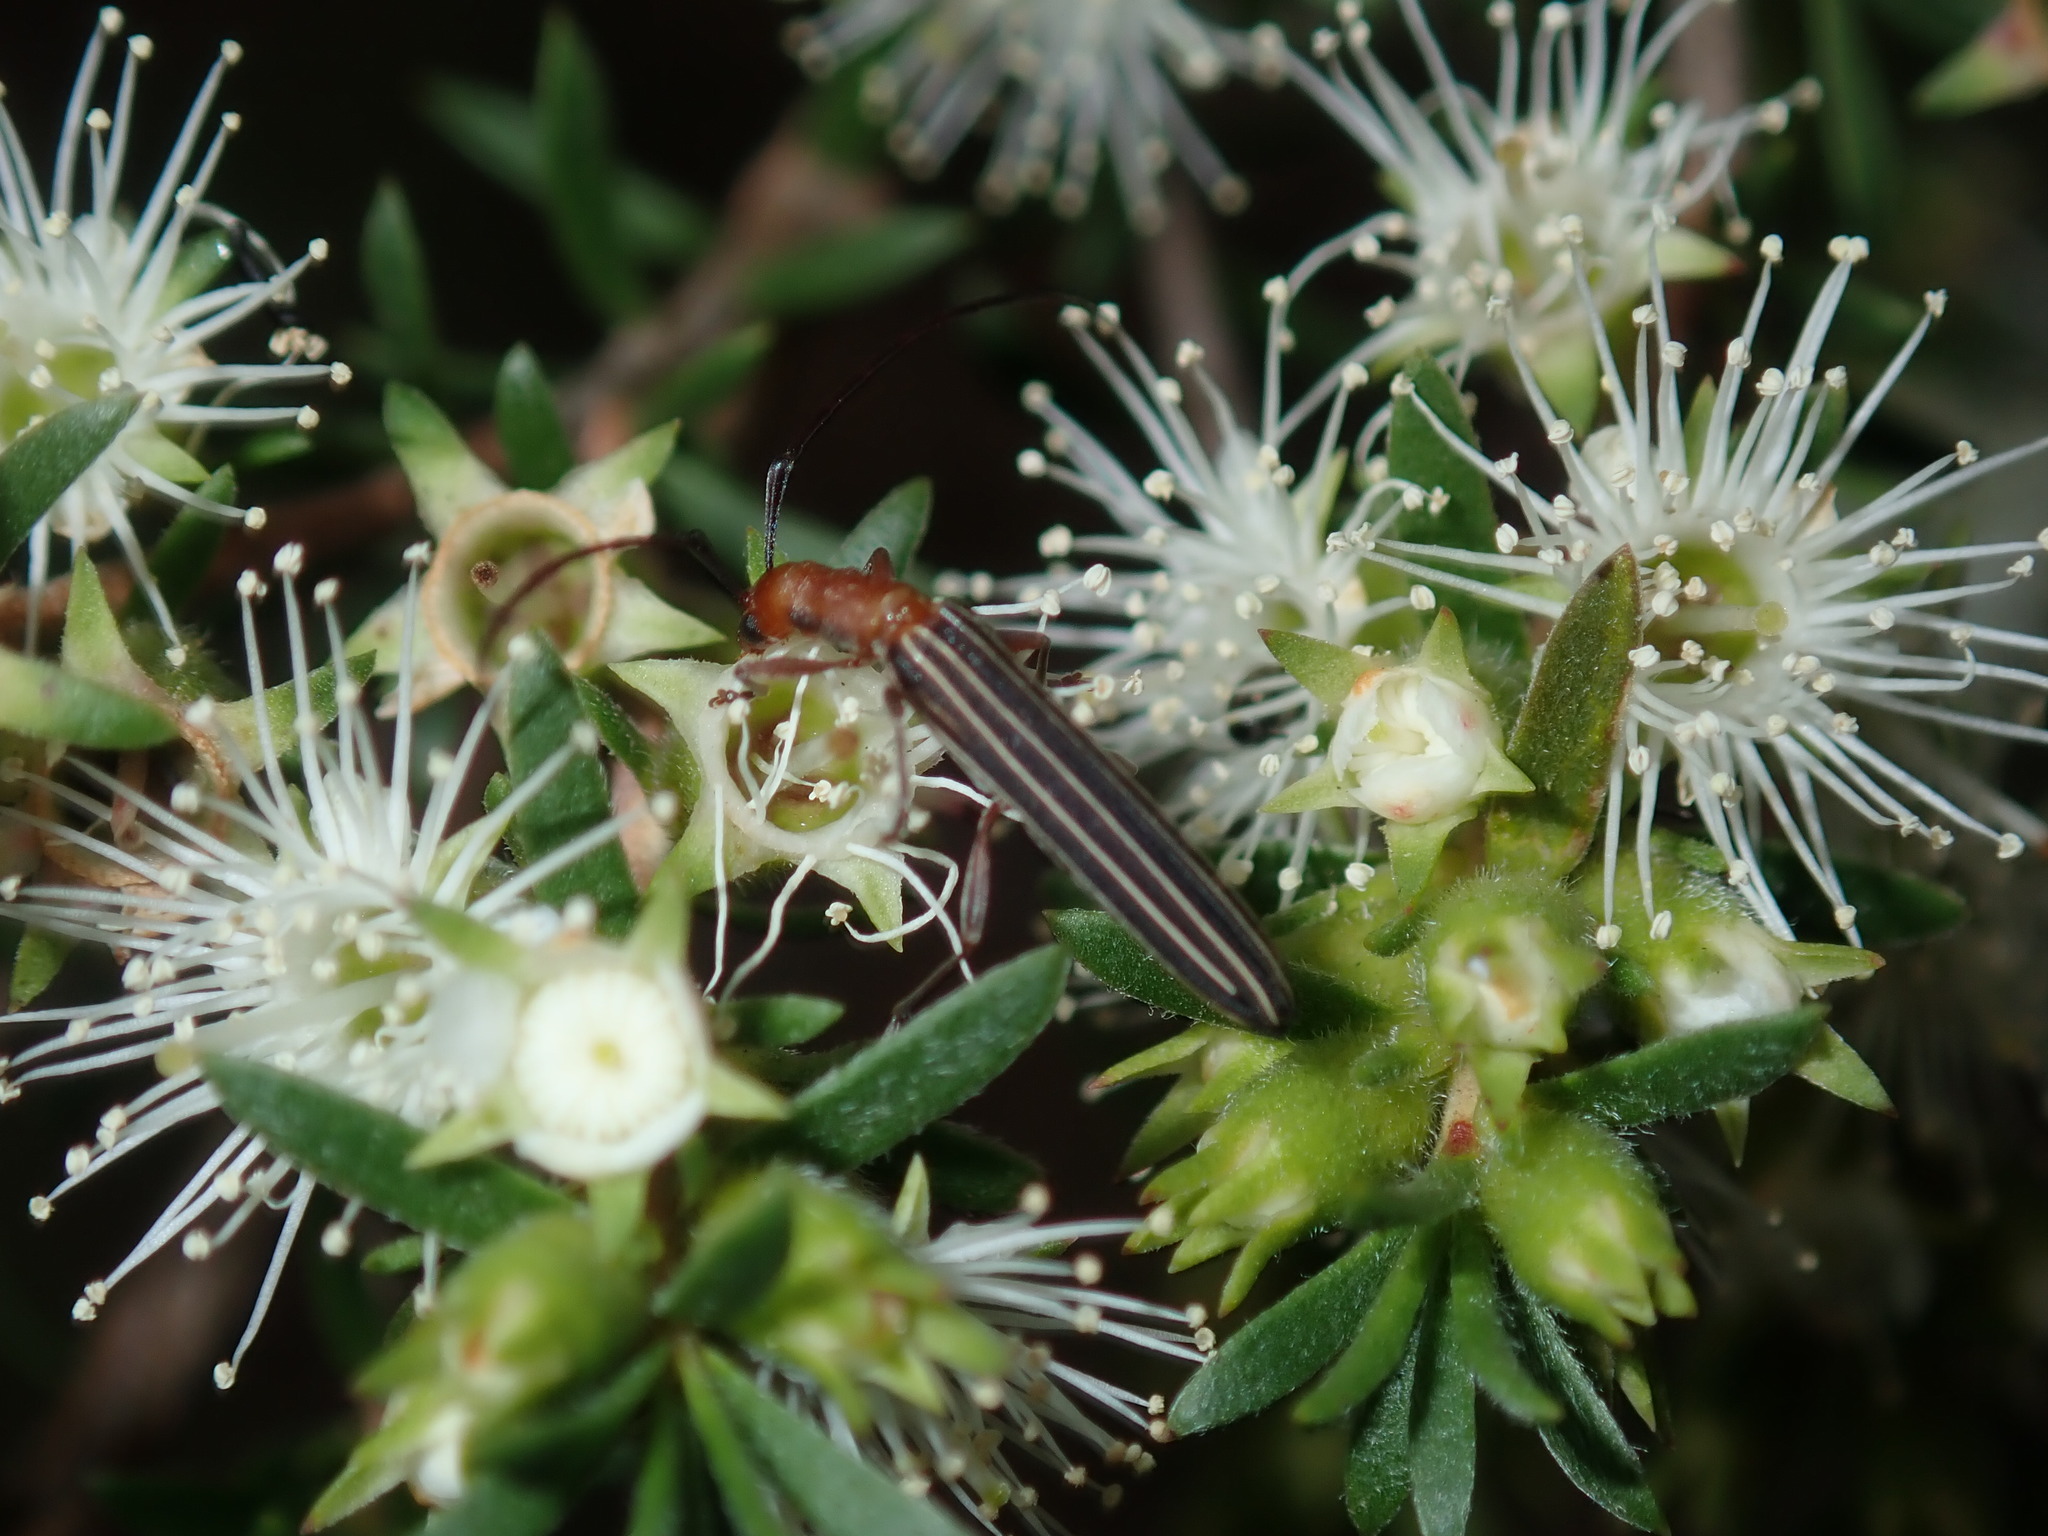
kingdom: Animalia
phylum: Arthropoda
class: Insecta
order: Coleoptera
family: Cerambycidae
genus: Syllitus
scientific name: Syllitus rectus
